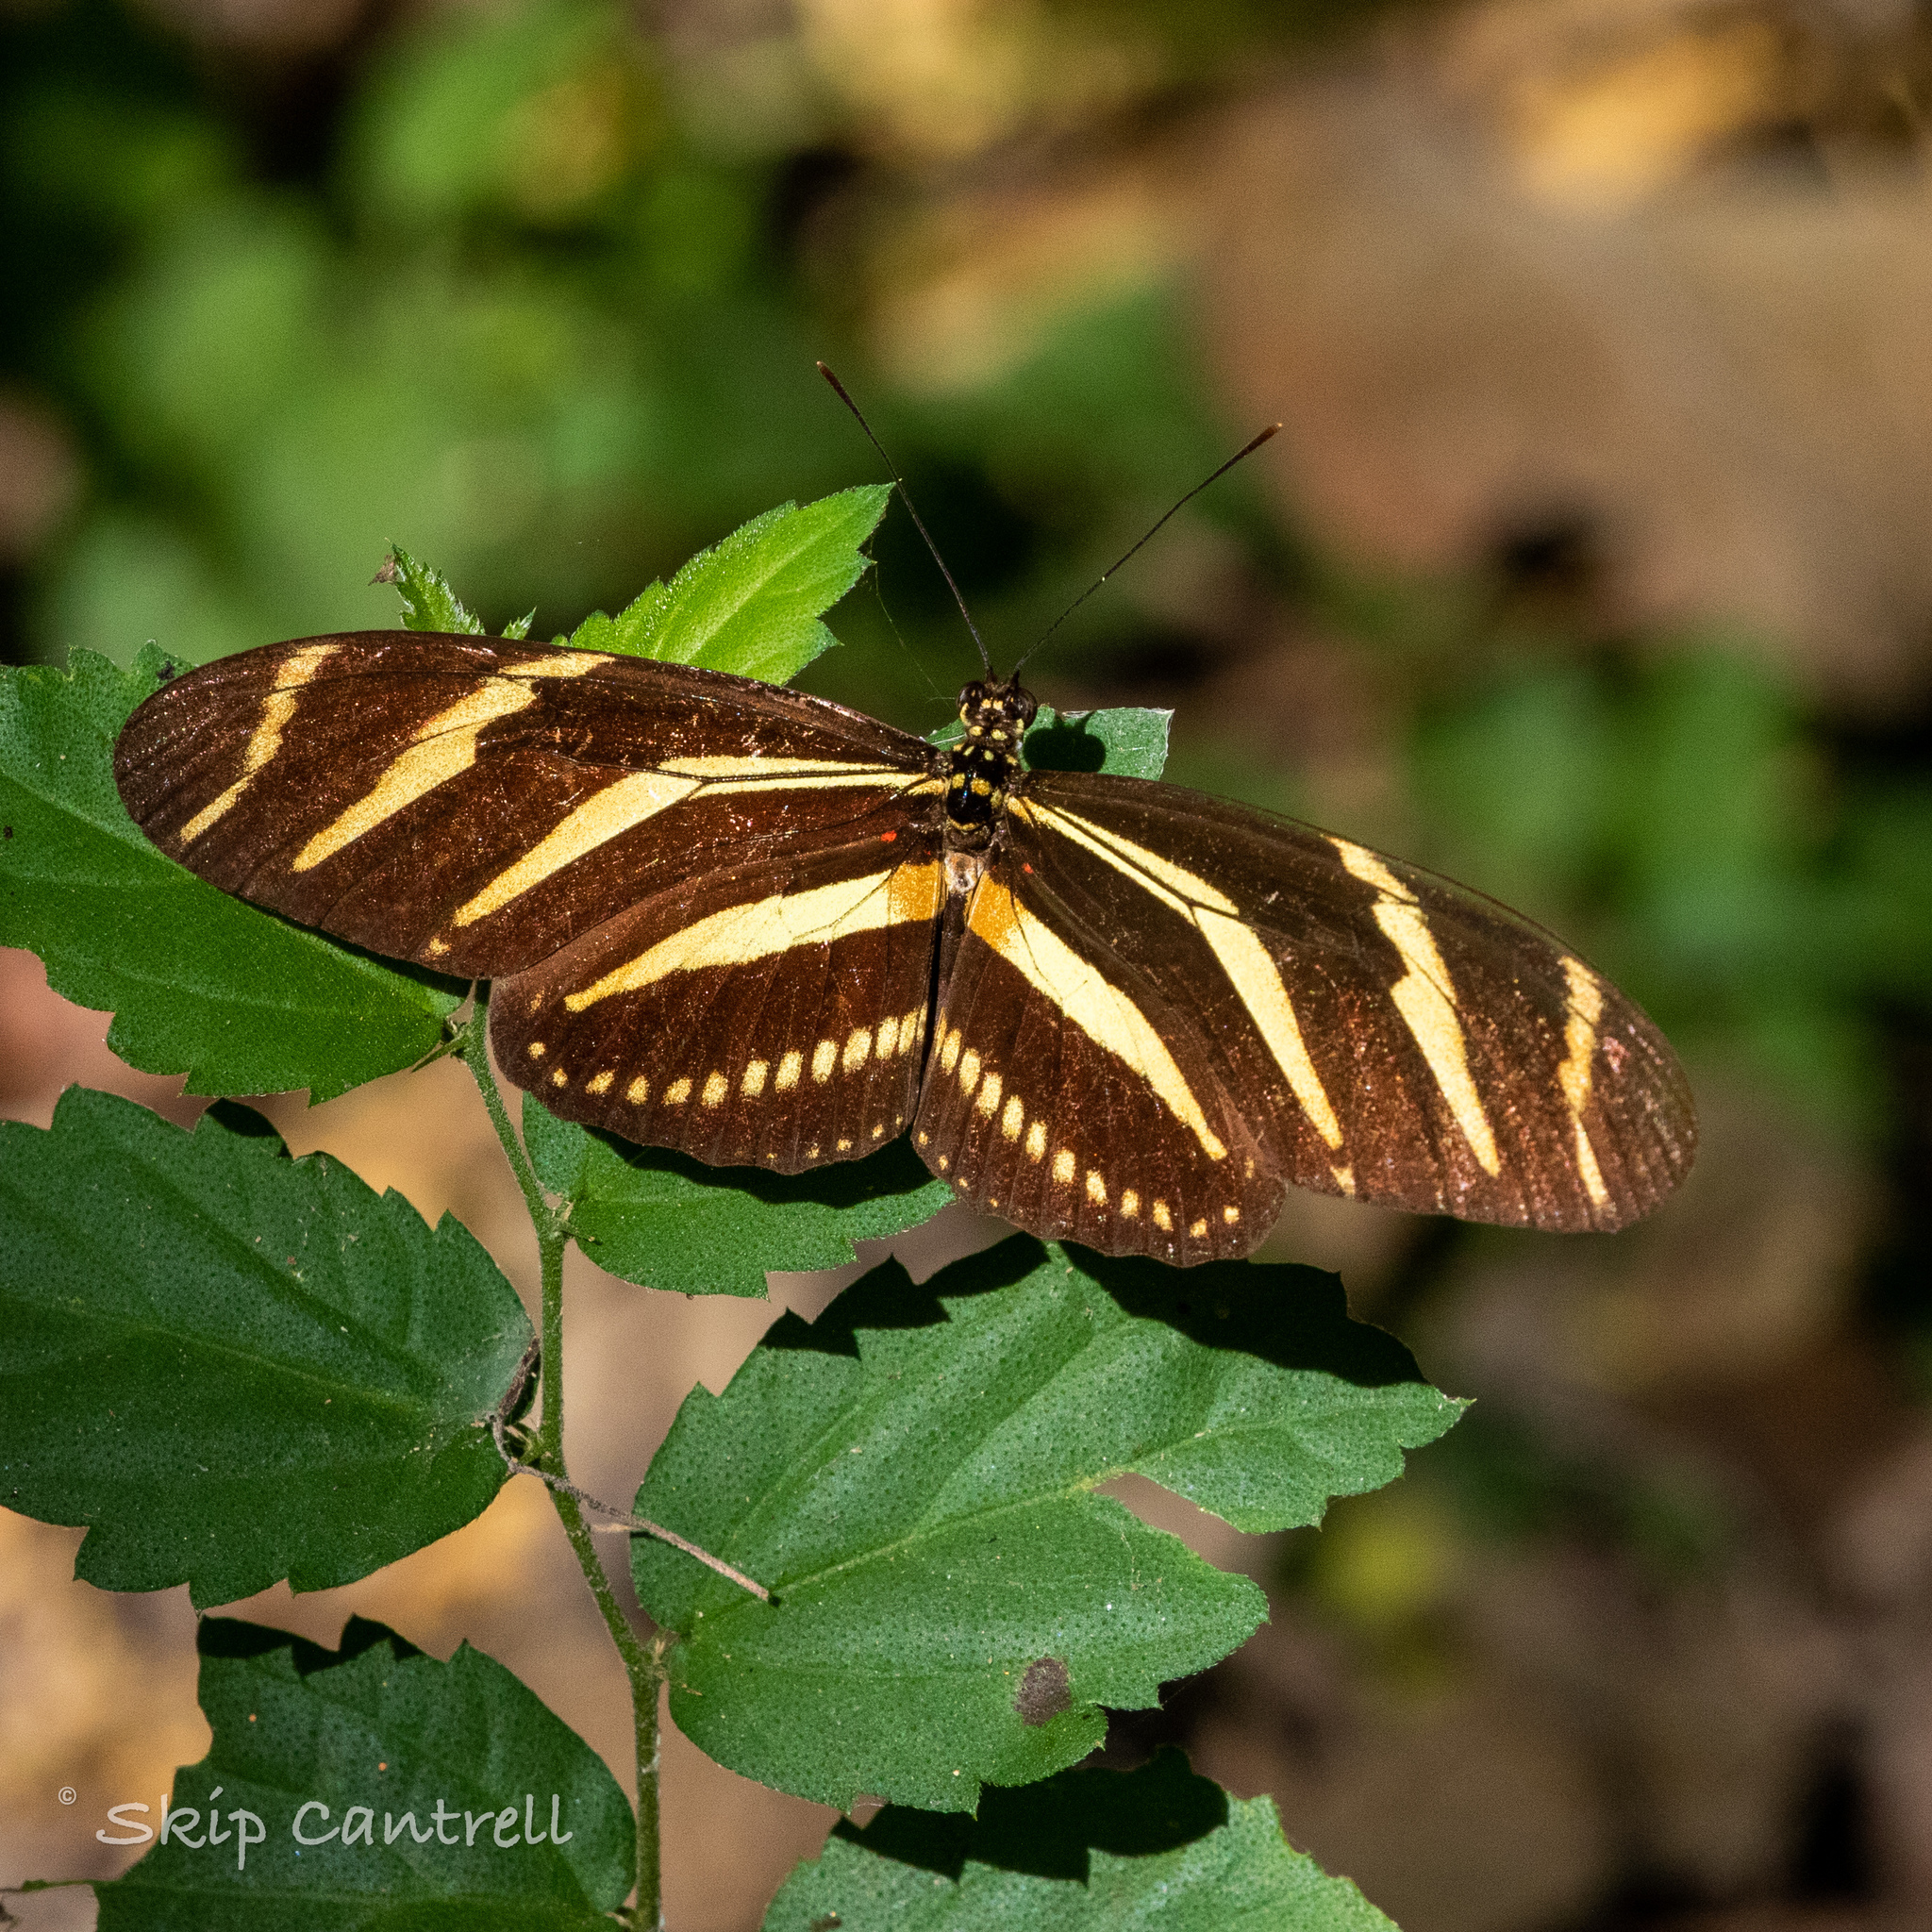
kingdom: Animalia
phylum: Arthropoda
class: Insecta
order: Lepidoptera
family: Nymphalidae
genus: Heliconius
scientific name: Heliconius charithonia
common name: Zebra long wing
